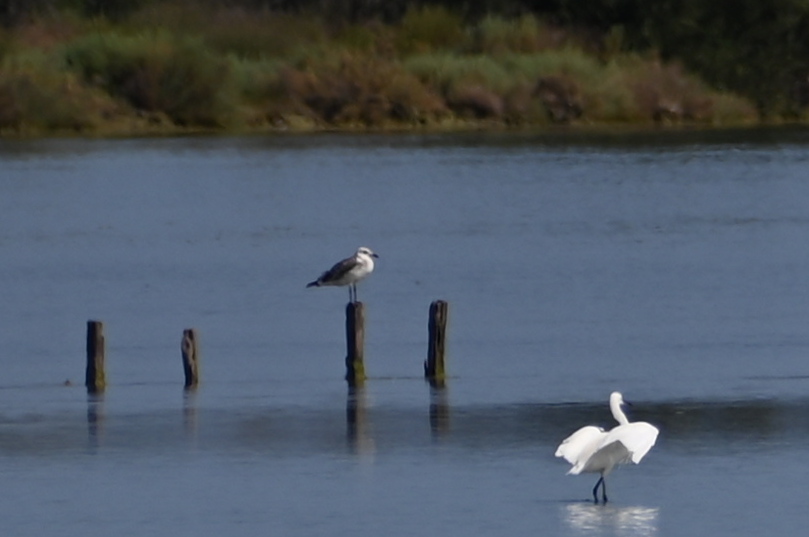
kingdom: Animalia
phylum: Chordata
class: Aves
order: Charadriiformes
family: Laridae
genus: Ichthyaetus
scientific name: Ichthyaetus audouinii
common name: Audouin's gull
